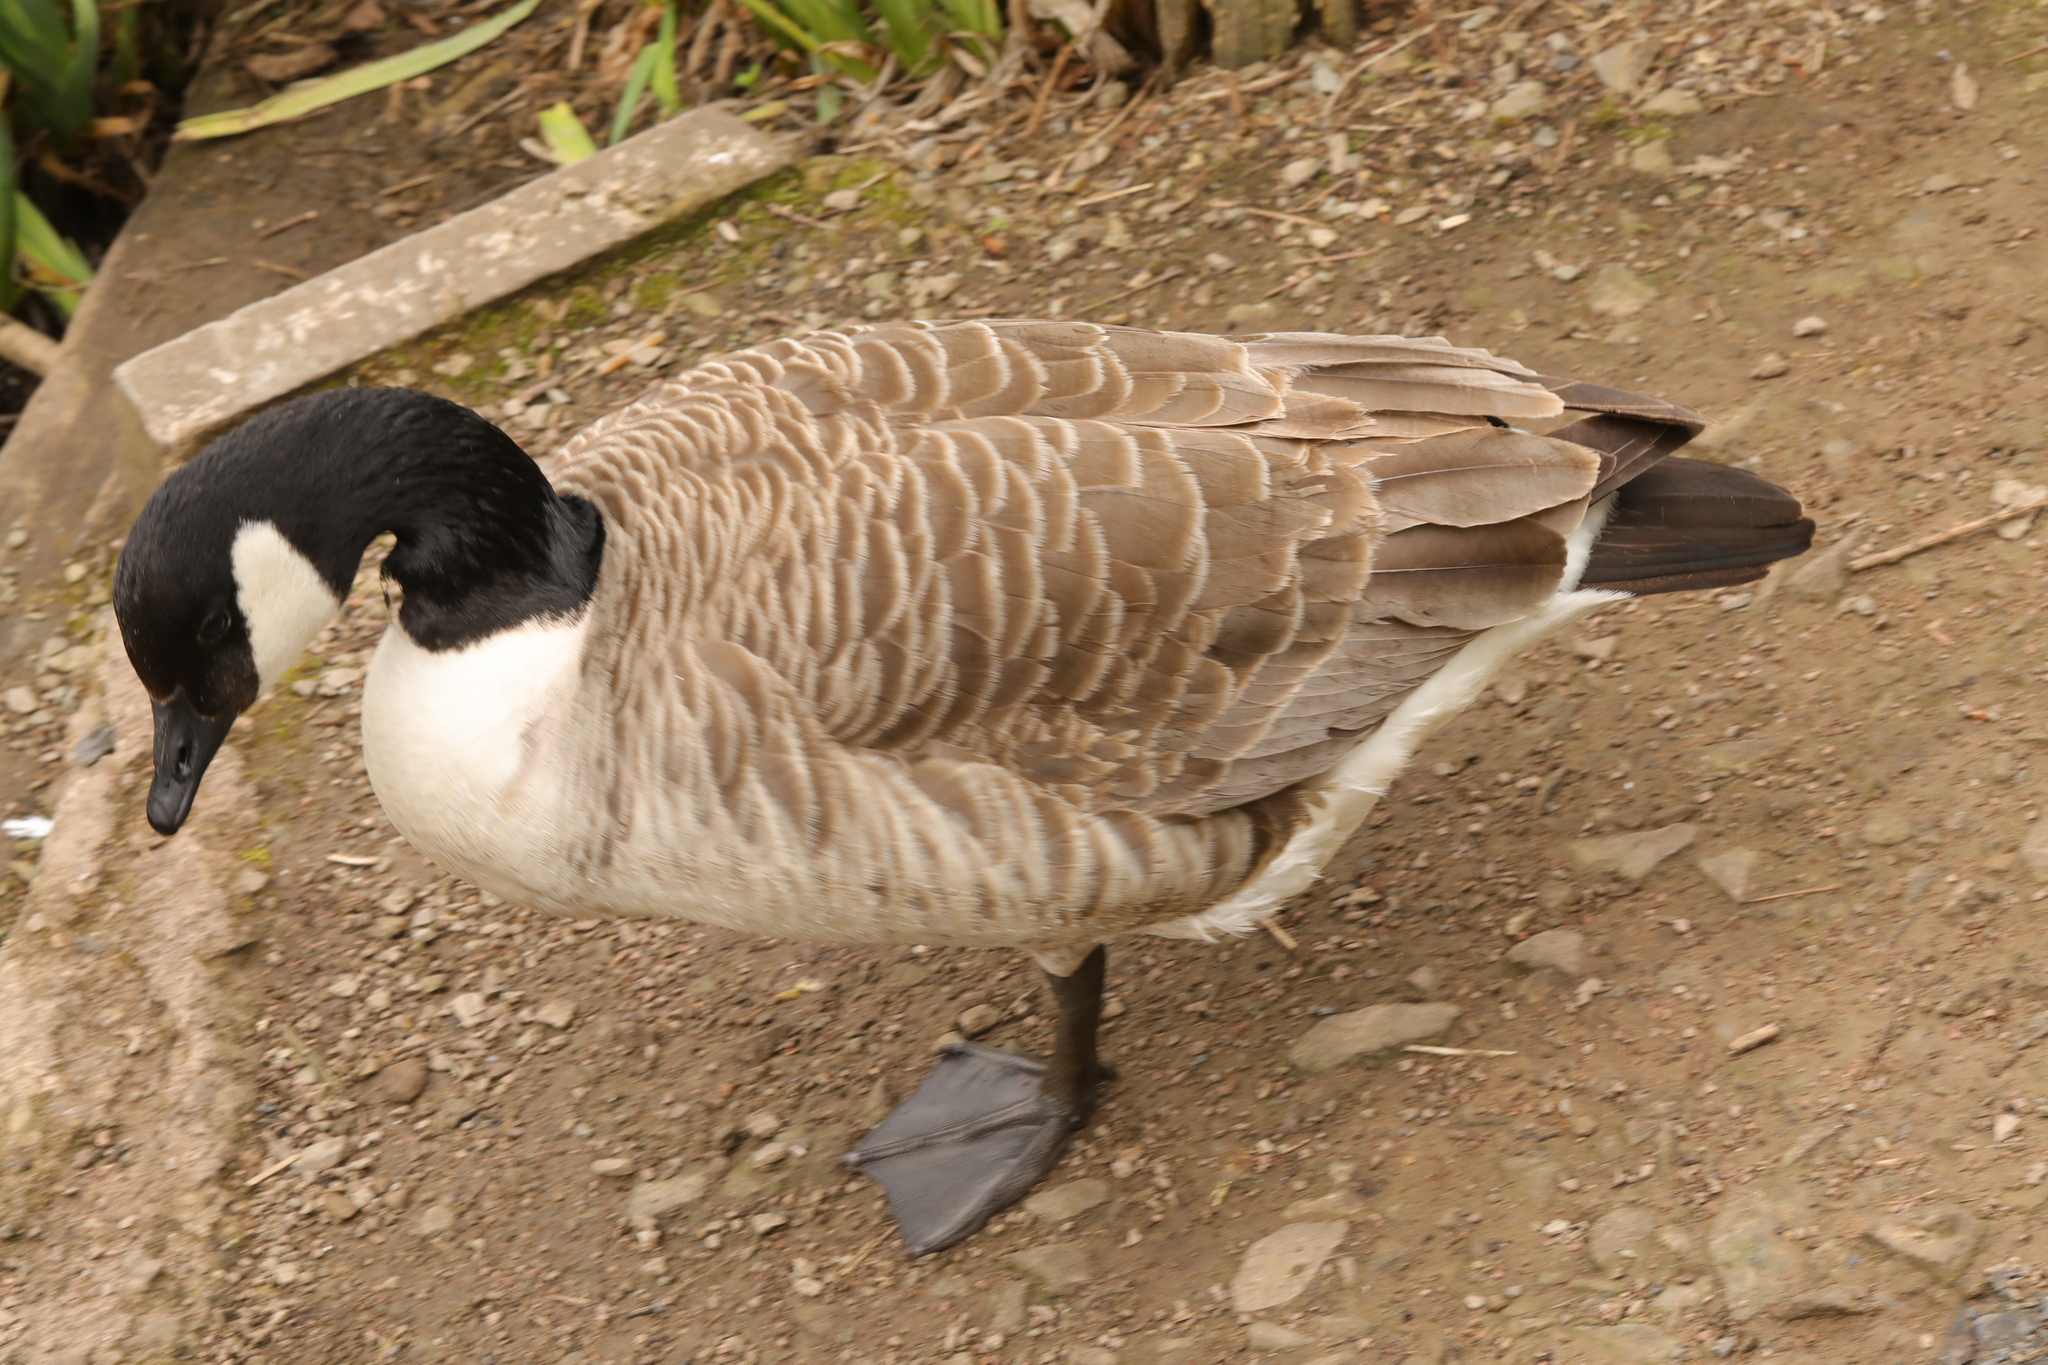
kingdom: Animalia
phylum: Chordata
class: Aves
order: Anseriformes
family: Anatidae
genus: Branta
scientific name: Branta canadensis
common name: Canada goose
